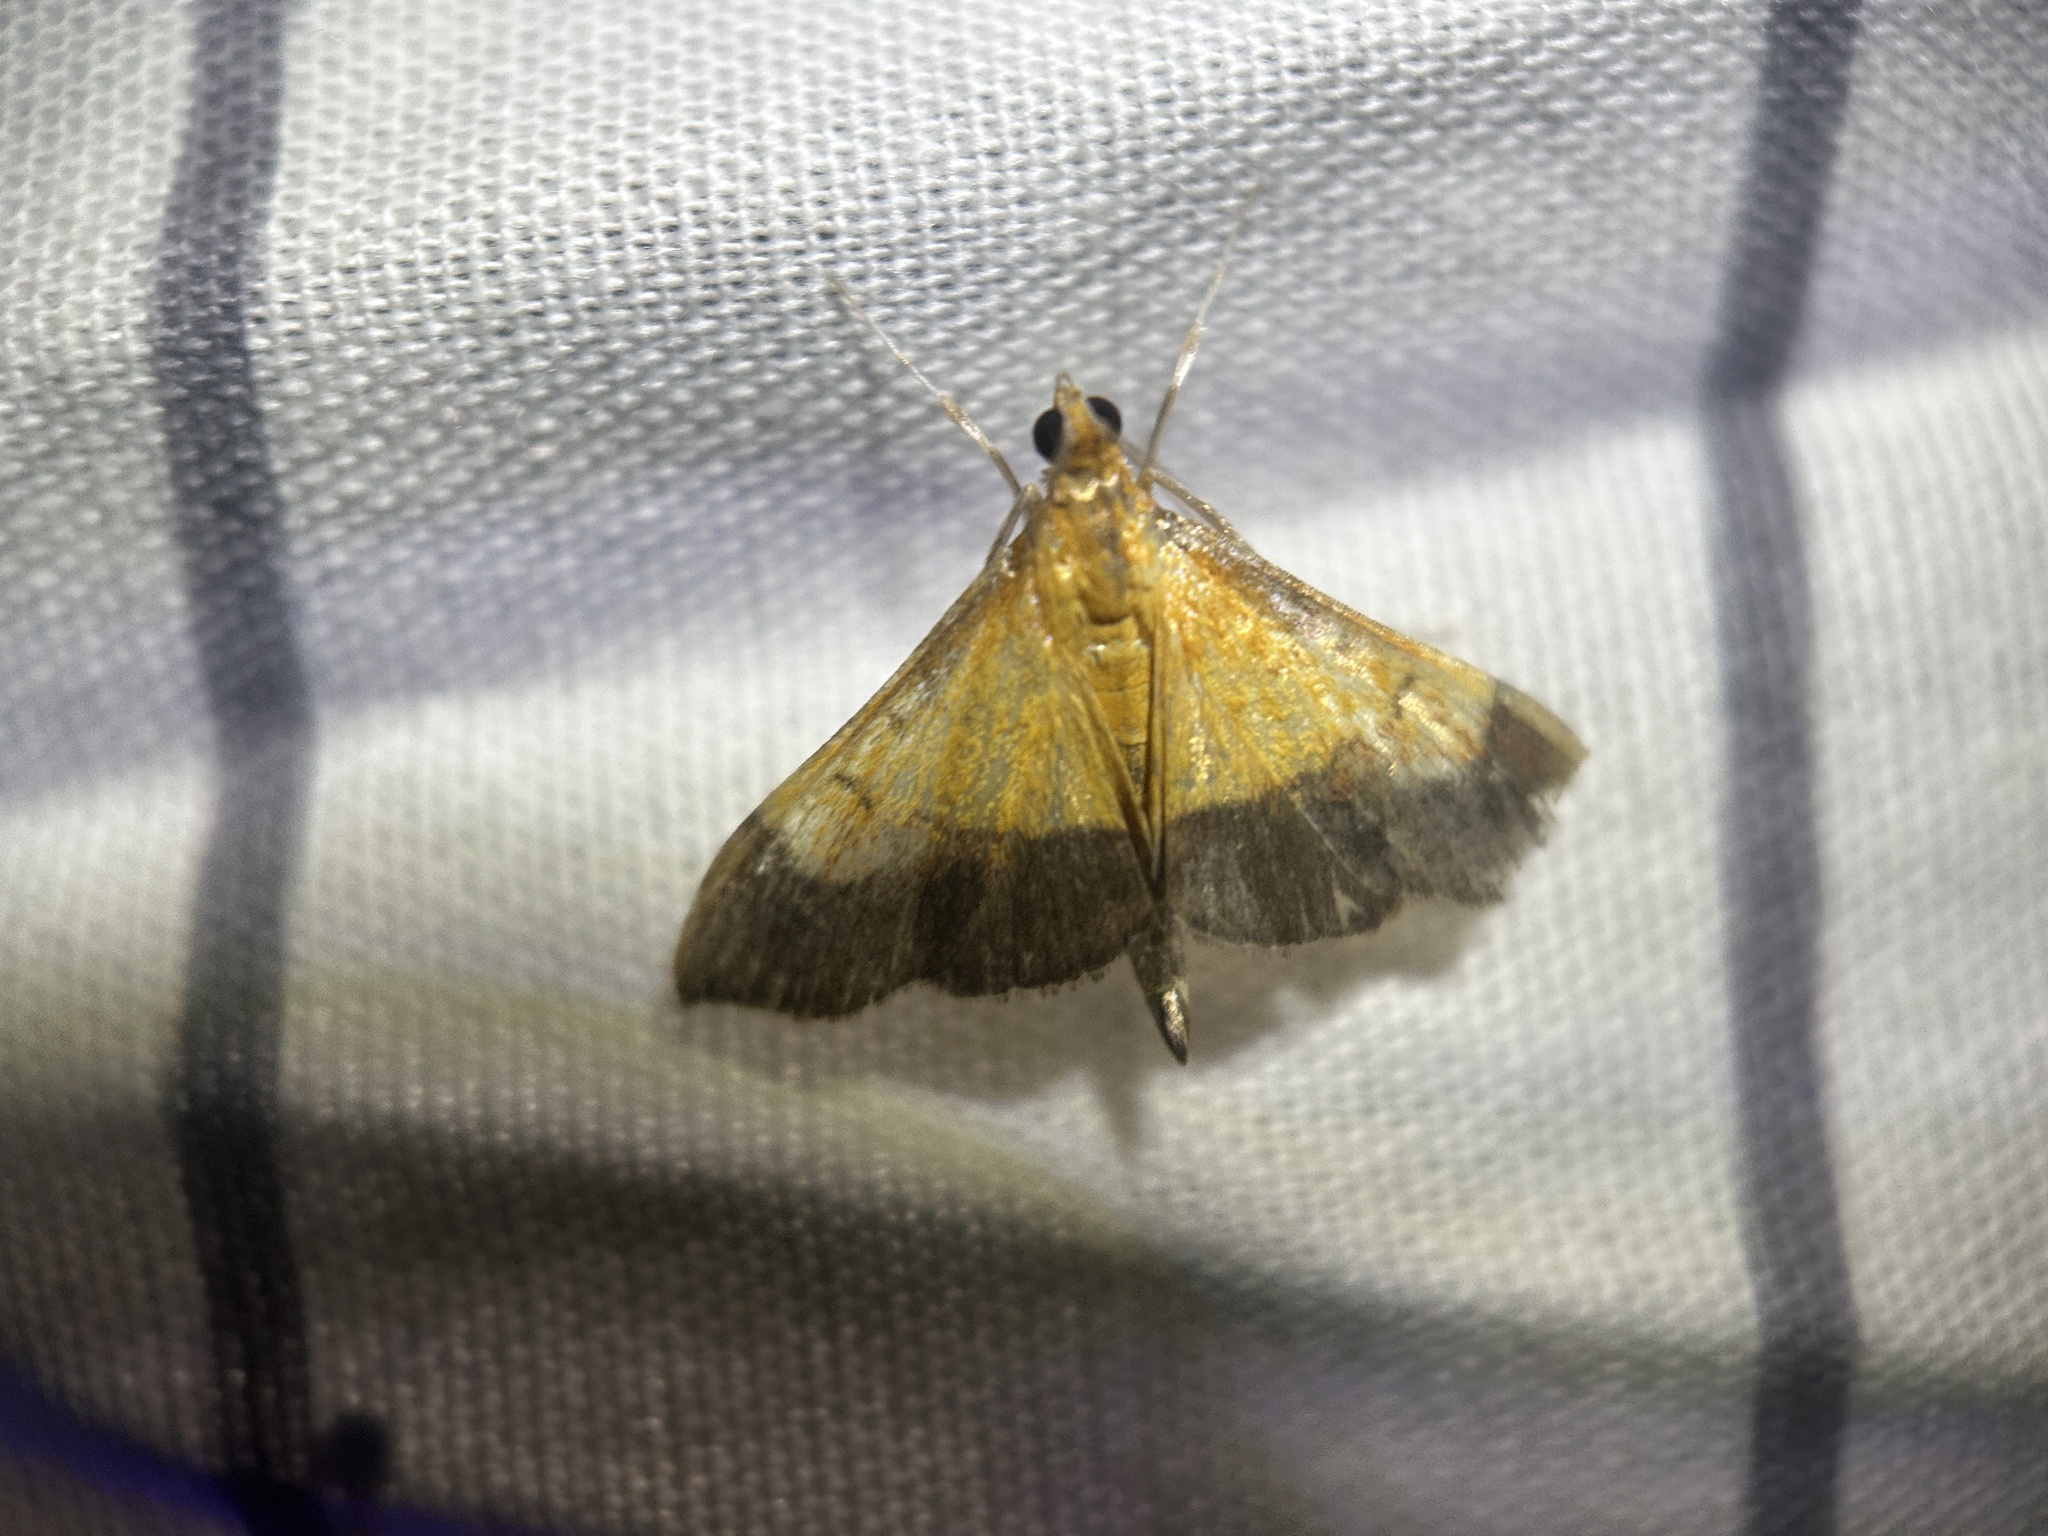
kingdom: Animalia
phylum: Arthropoda
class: Insecta
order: Lepidoptera
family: Crambidae
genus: Pyrausta
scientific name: Pyrausta bicoloralis
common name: Bicolored pyrausta moth
